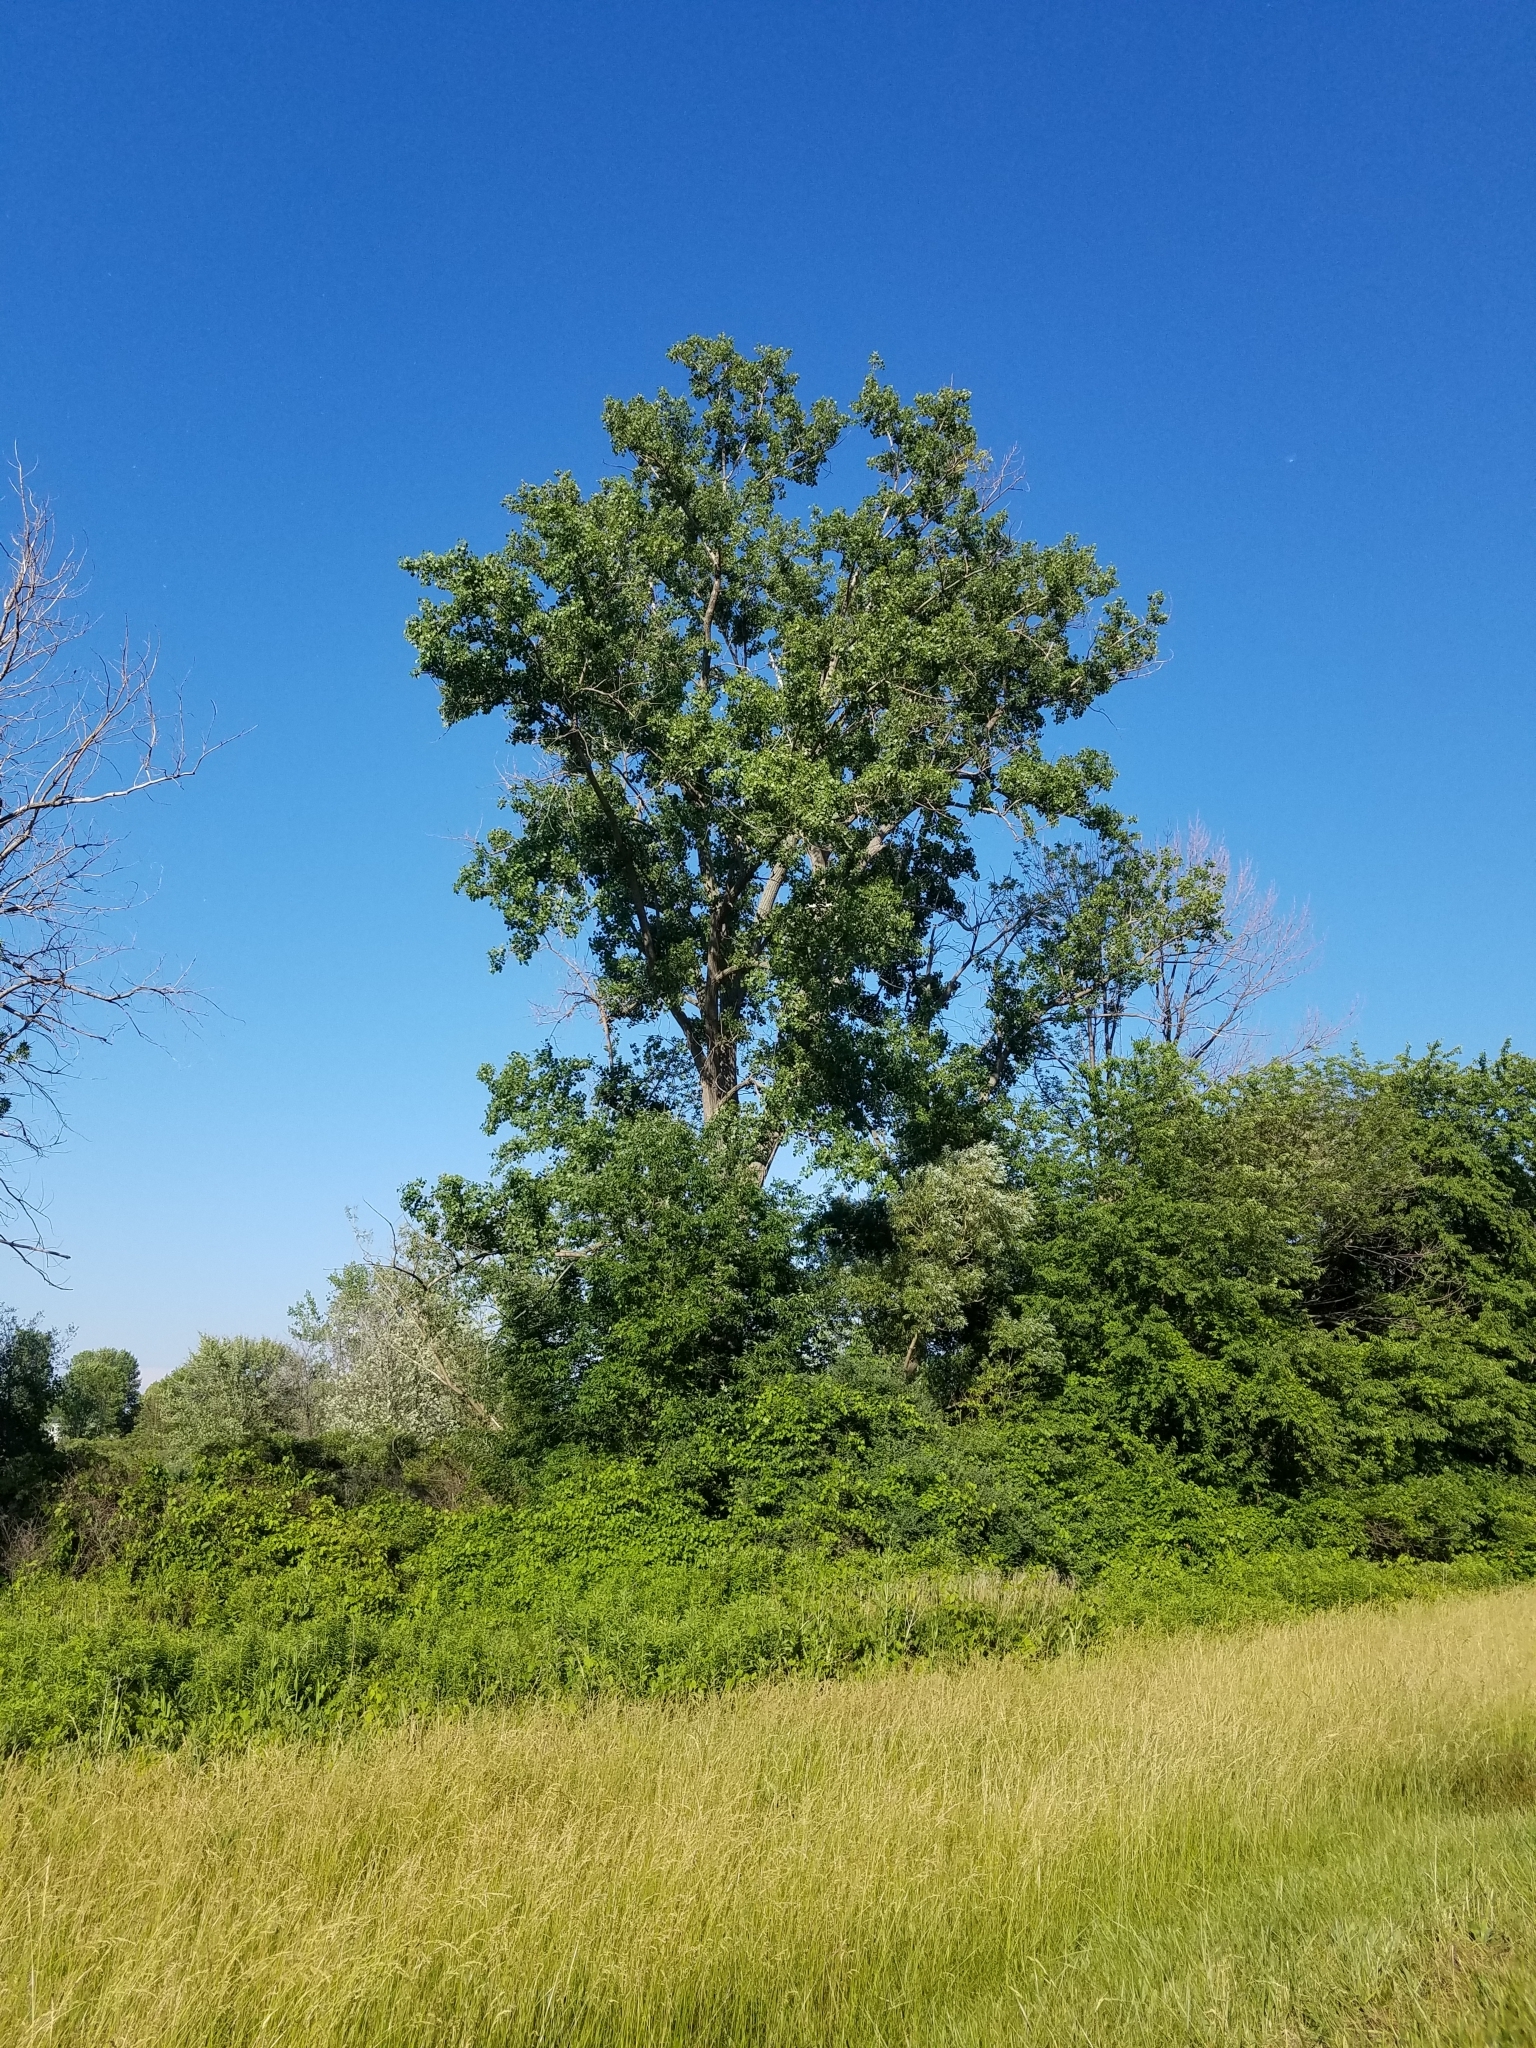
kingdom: Plantae
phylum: Tracheophyta
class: Magnoliopsida
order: Malpighiales
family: Salicaceae
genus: Populus
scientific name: Populus deltoides
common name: Eastern cottonwood
